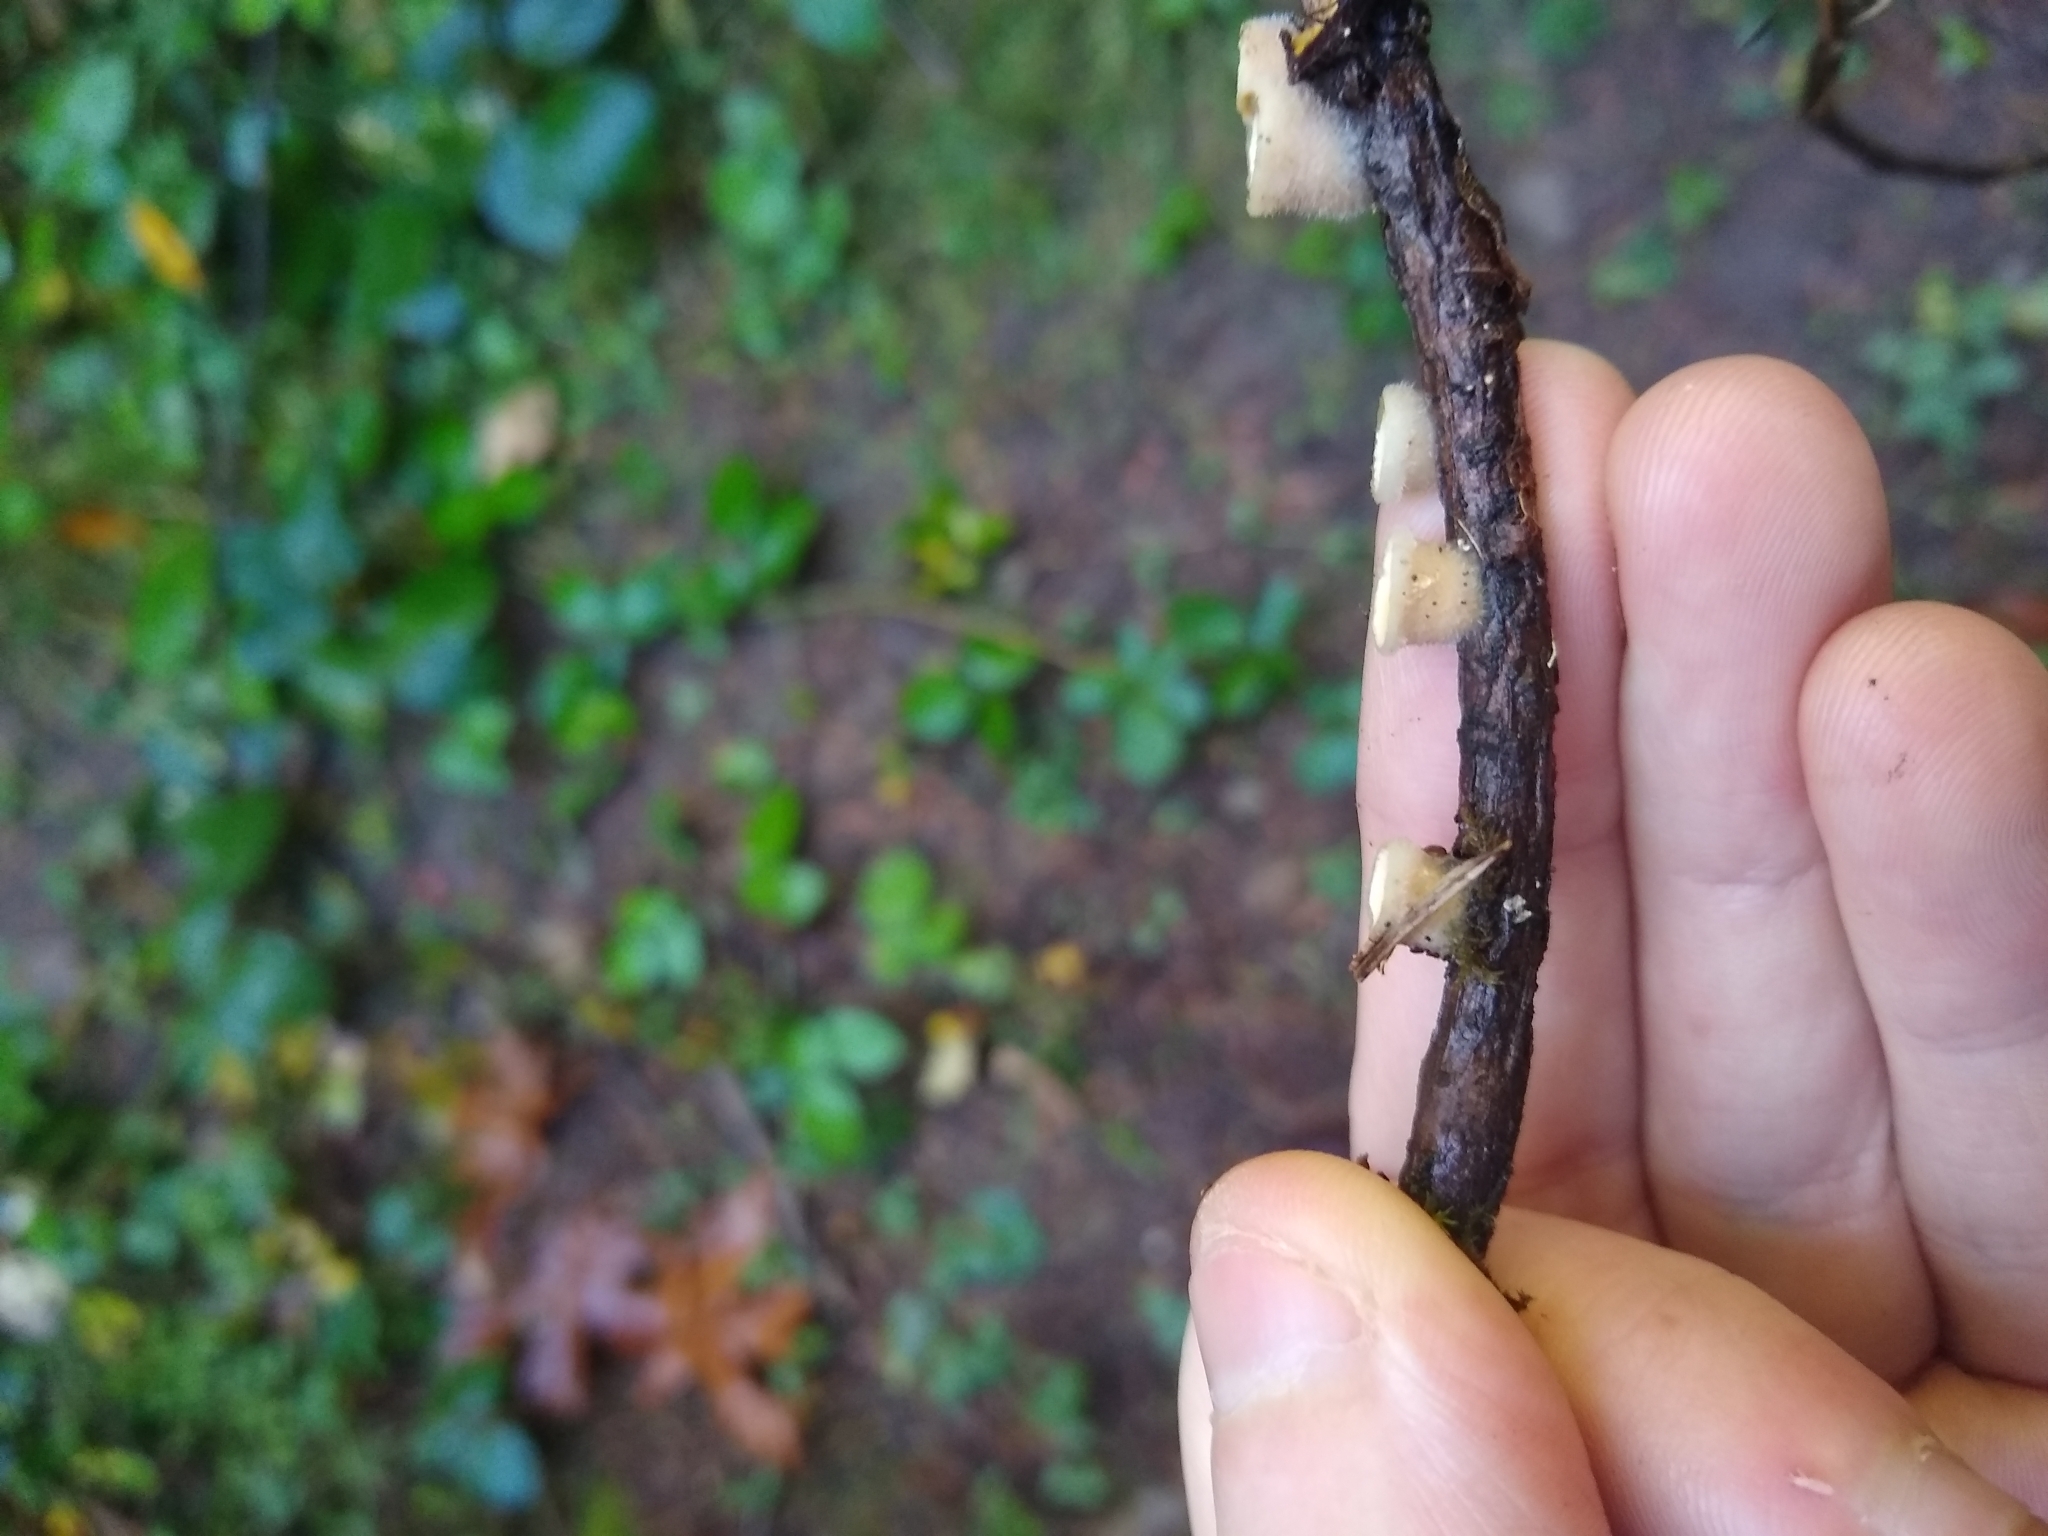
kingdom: Fungi
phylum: Basidiomycota
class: Agaricomycetes
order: Agaricales
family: Agaricaceae
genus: Nidula
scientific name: Nidula candida
